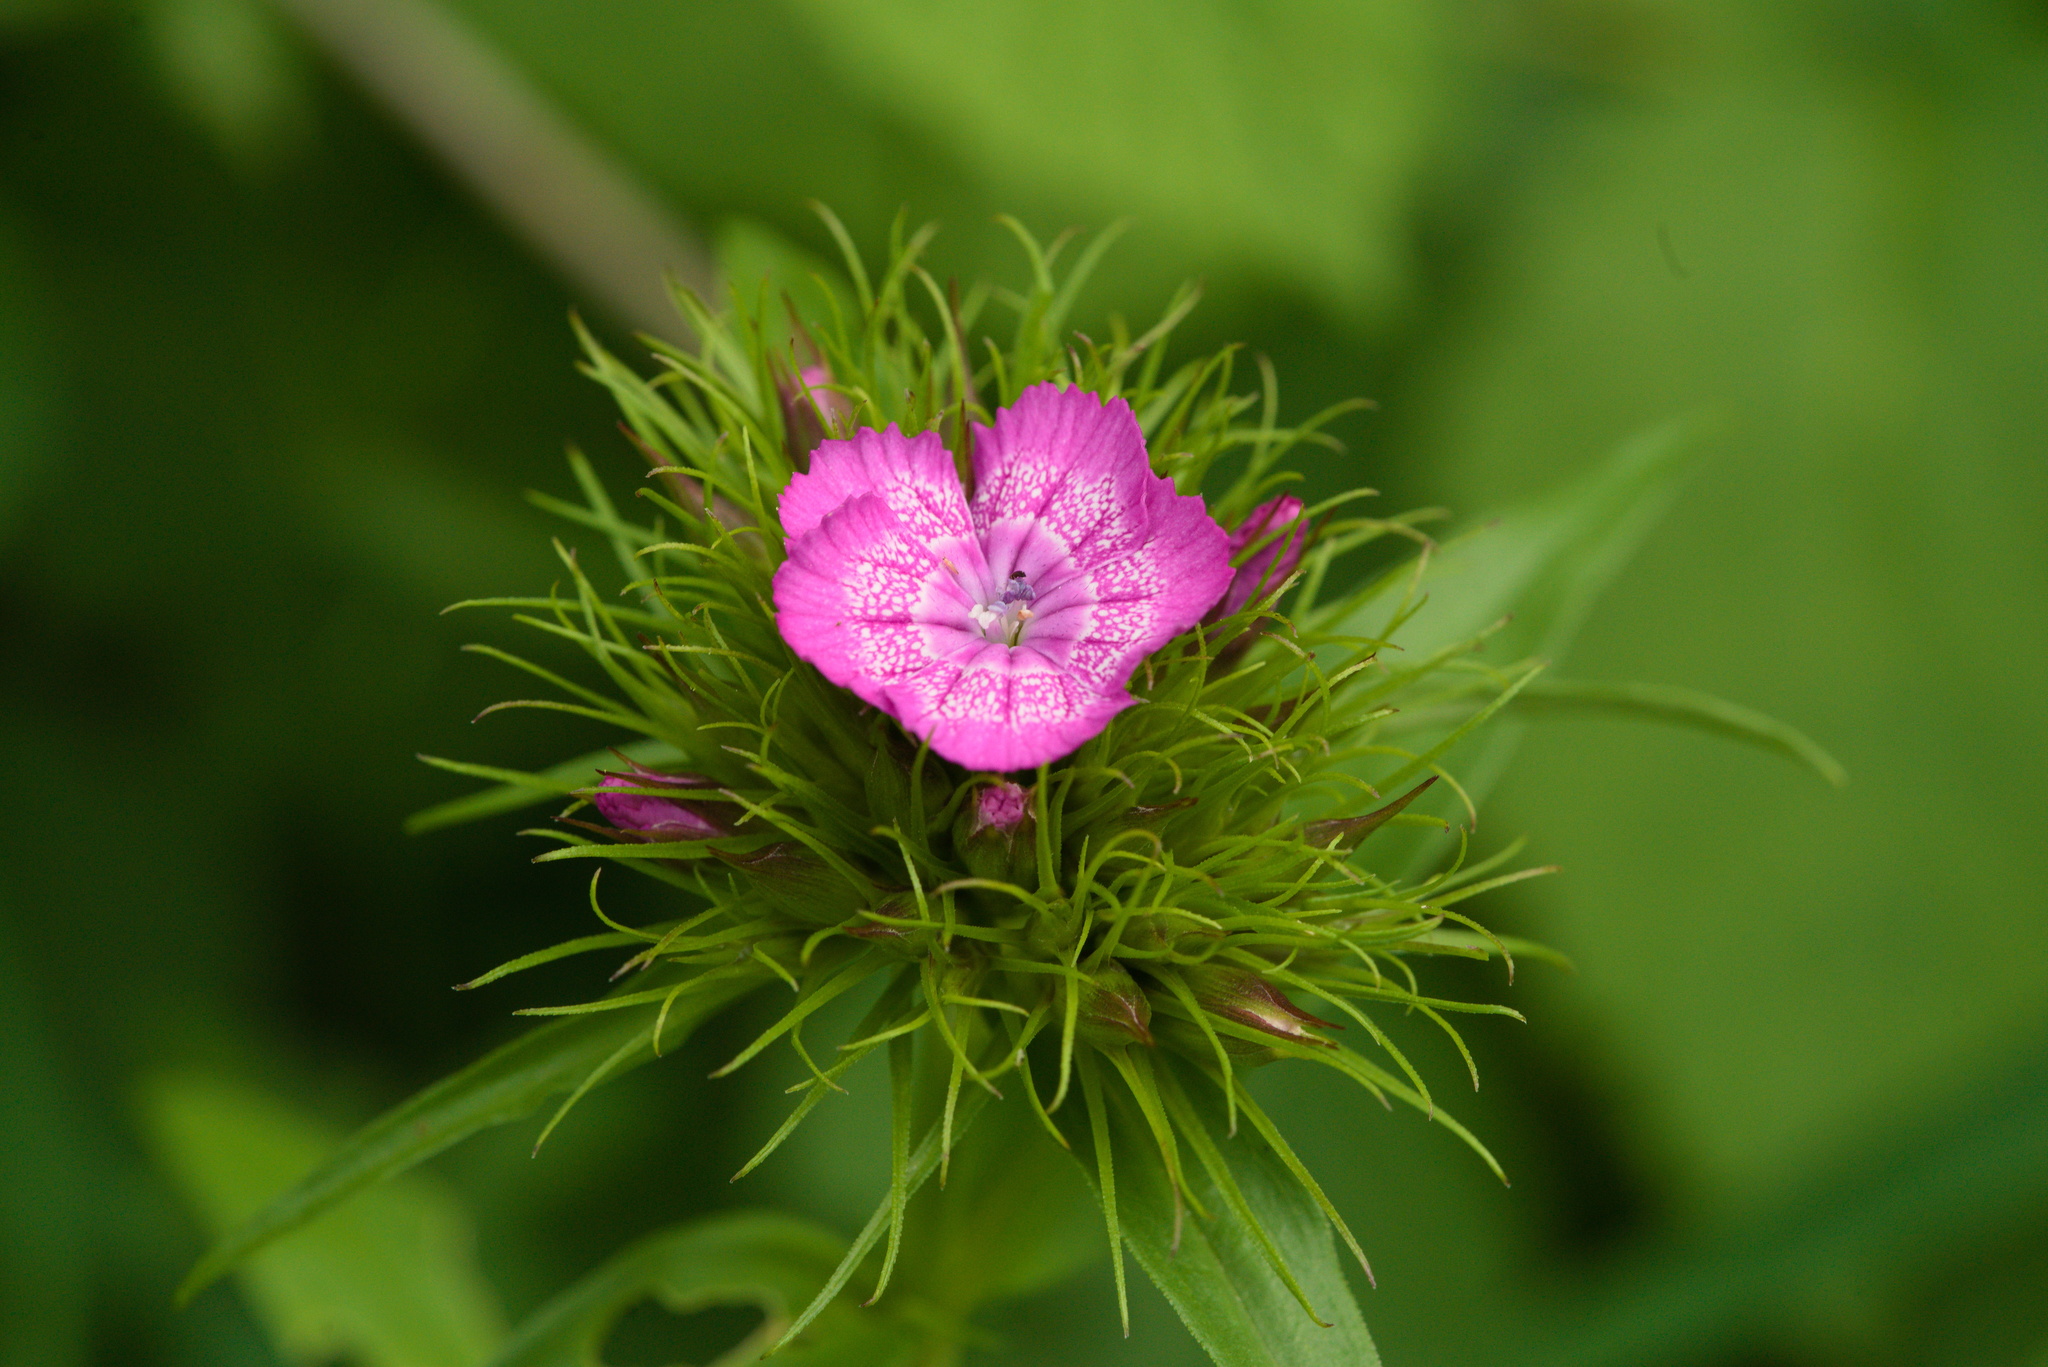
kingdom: Plantae
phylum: Tracheophyta
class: Magnoliopsida
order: Caryophyllales
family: Caryophyllaceae
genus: Dianthus
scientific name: Dianthus barbatus
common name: Sweet-william
